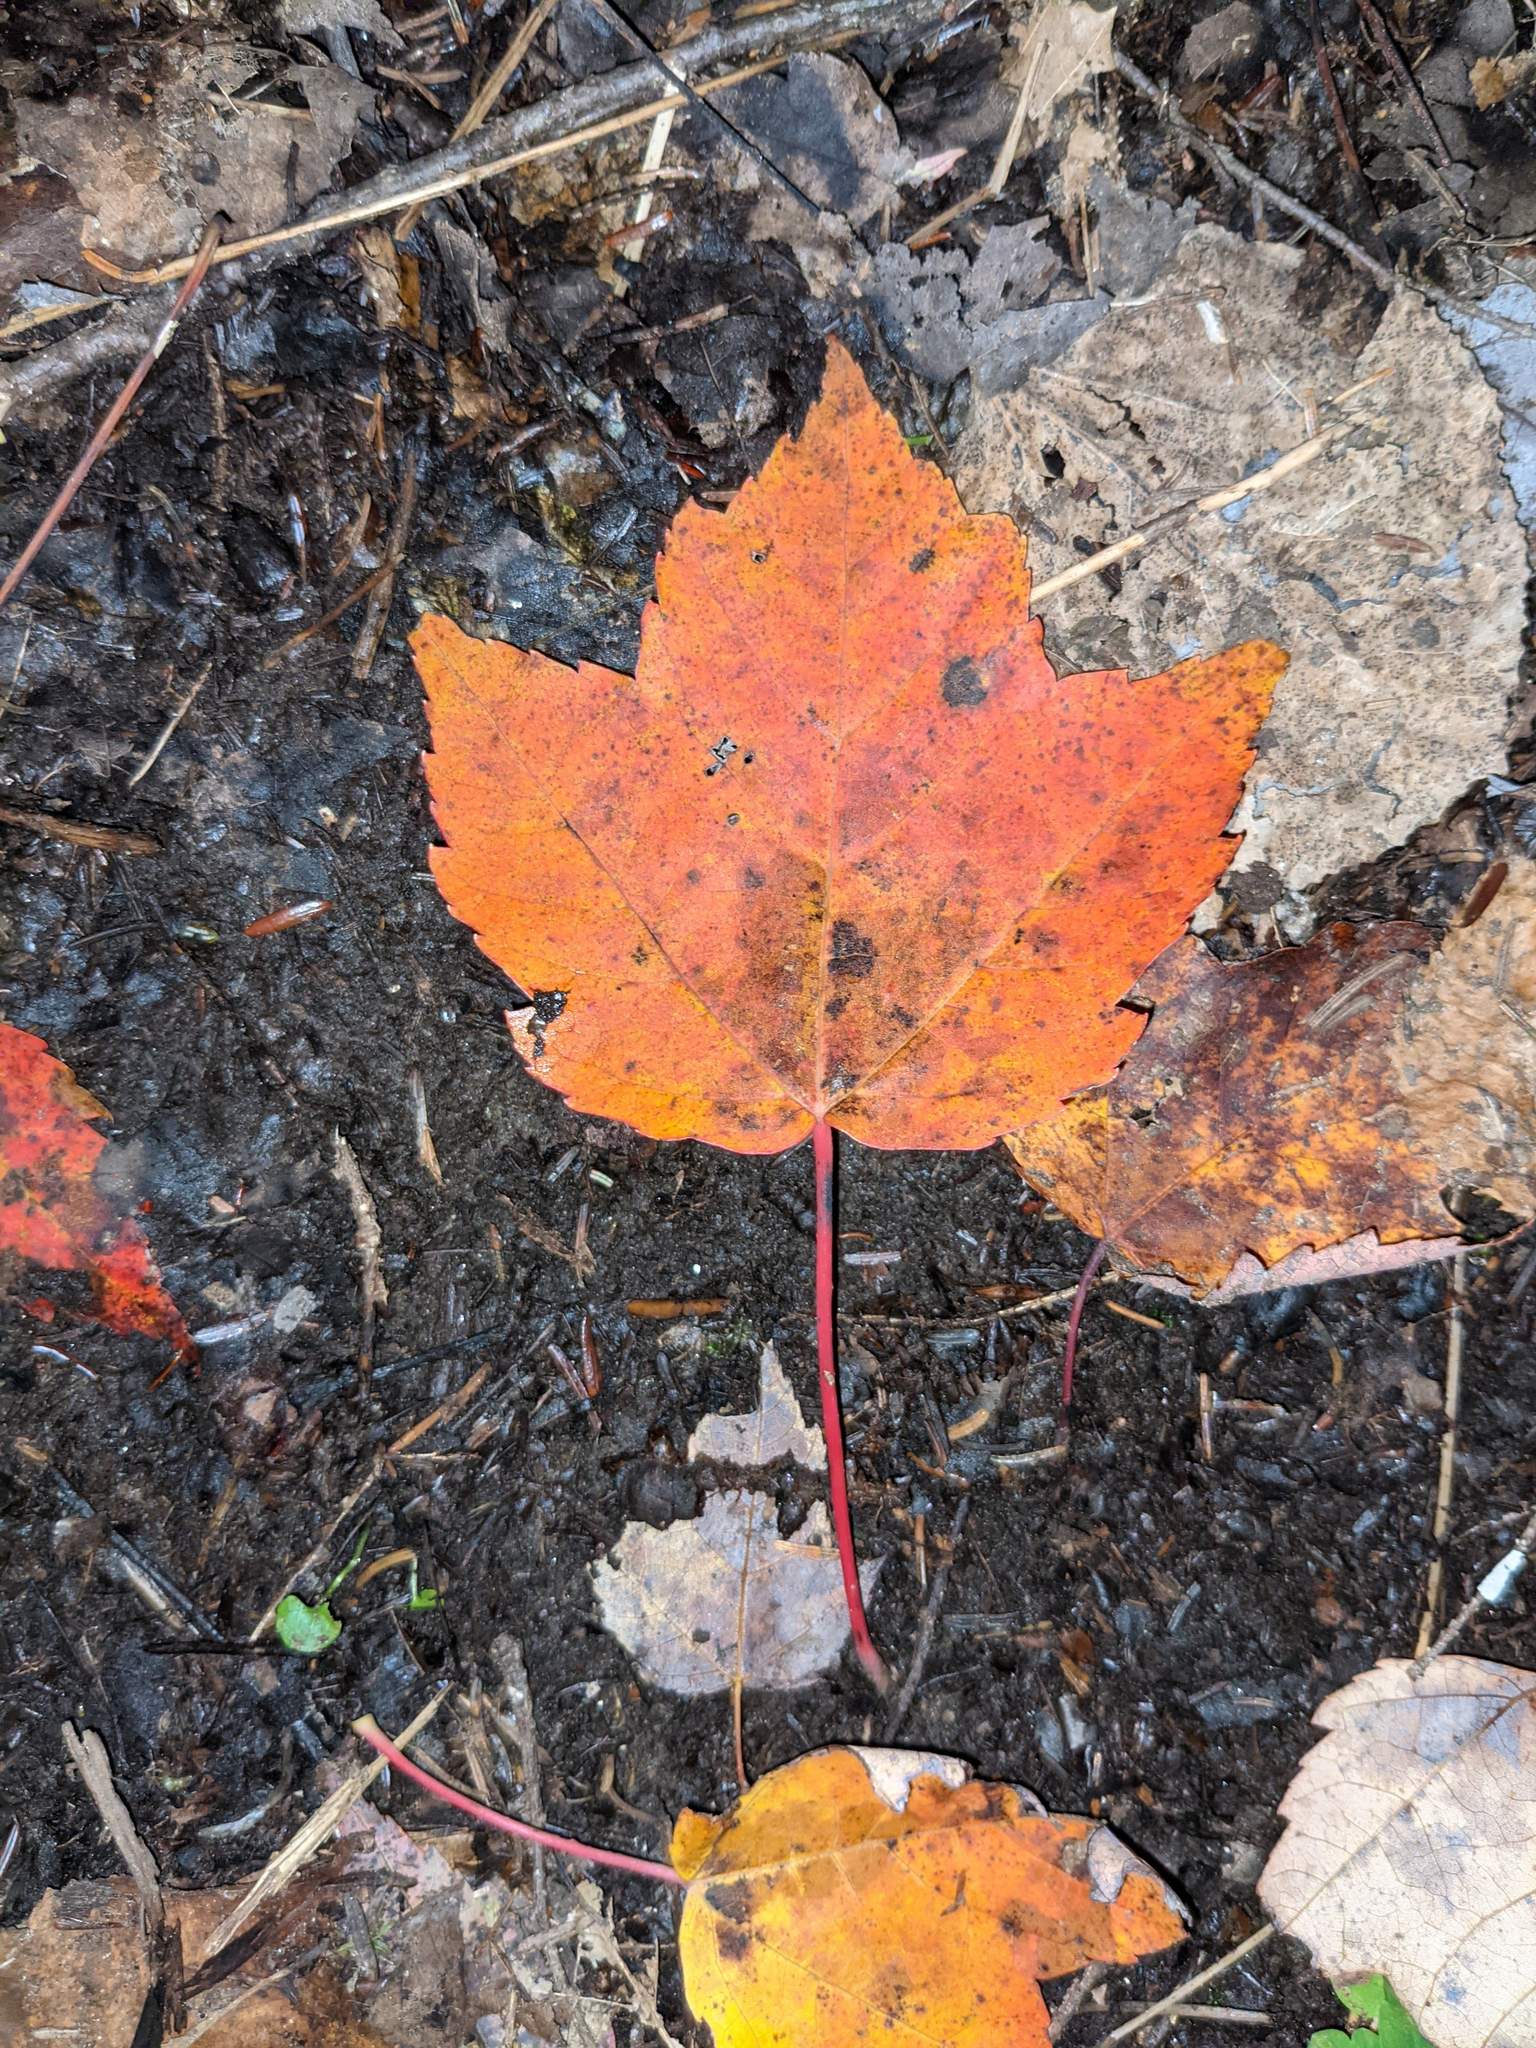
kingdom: Plantae
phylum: Tracheophyta
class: Magnoliopsida
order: Sapindales
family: Sapindaceae
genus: Acer
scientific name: Acer rubrum
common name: Red maple
